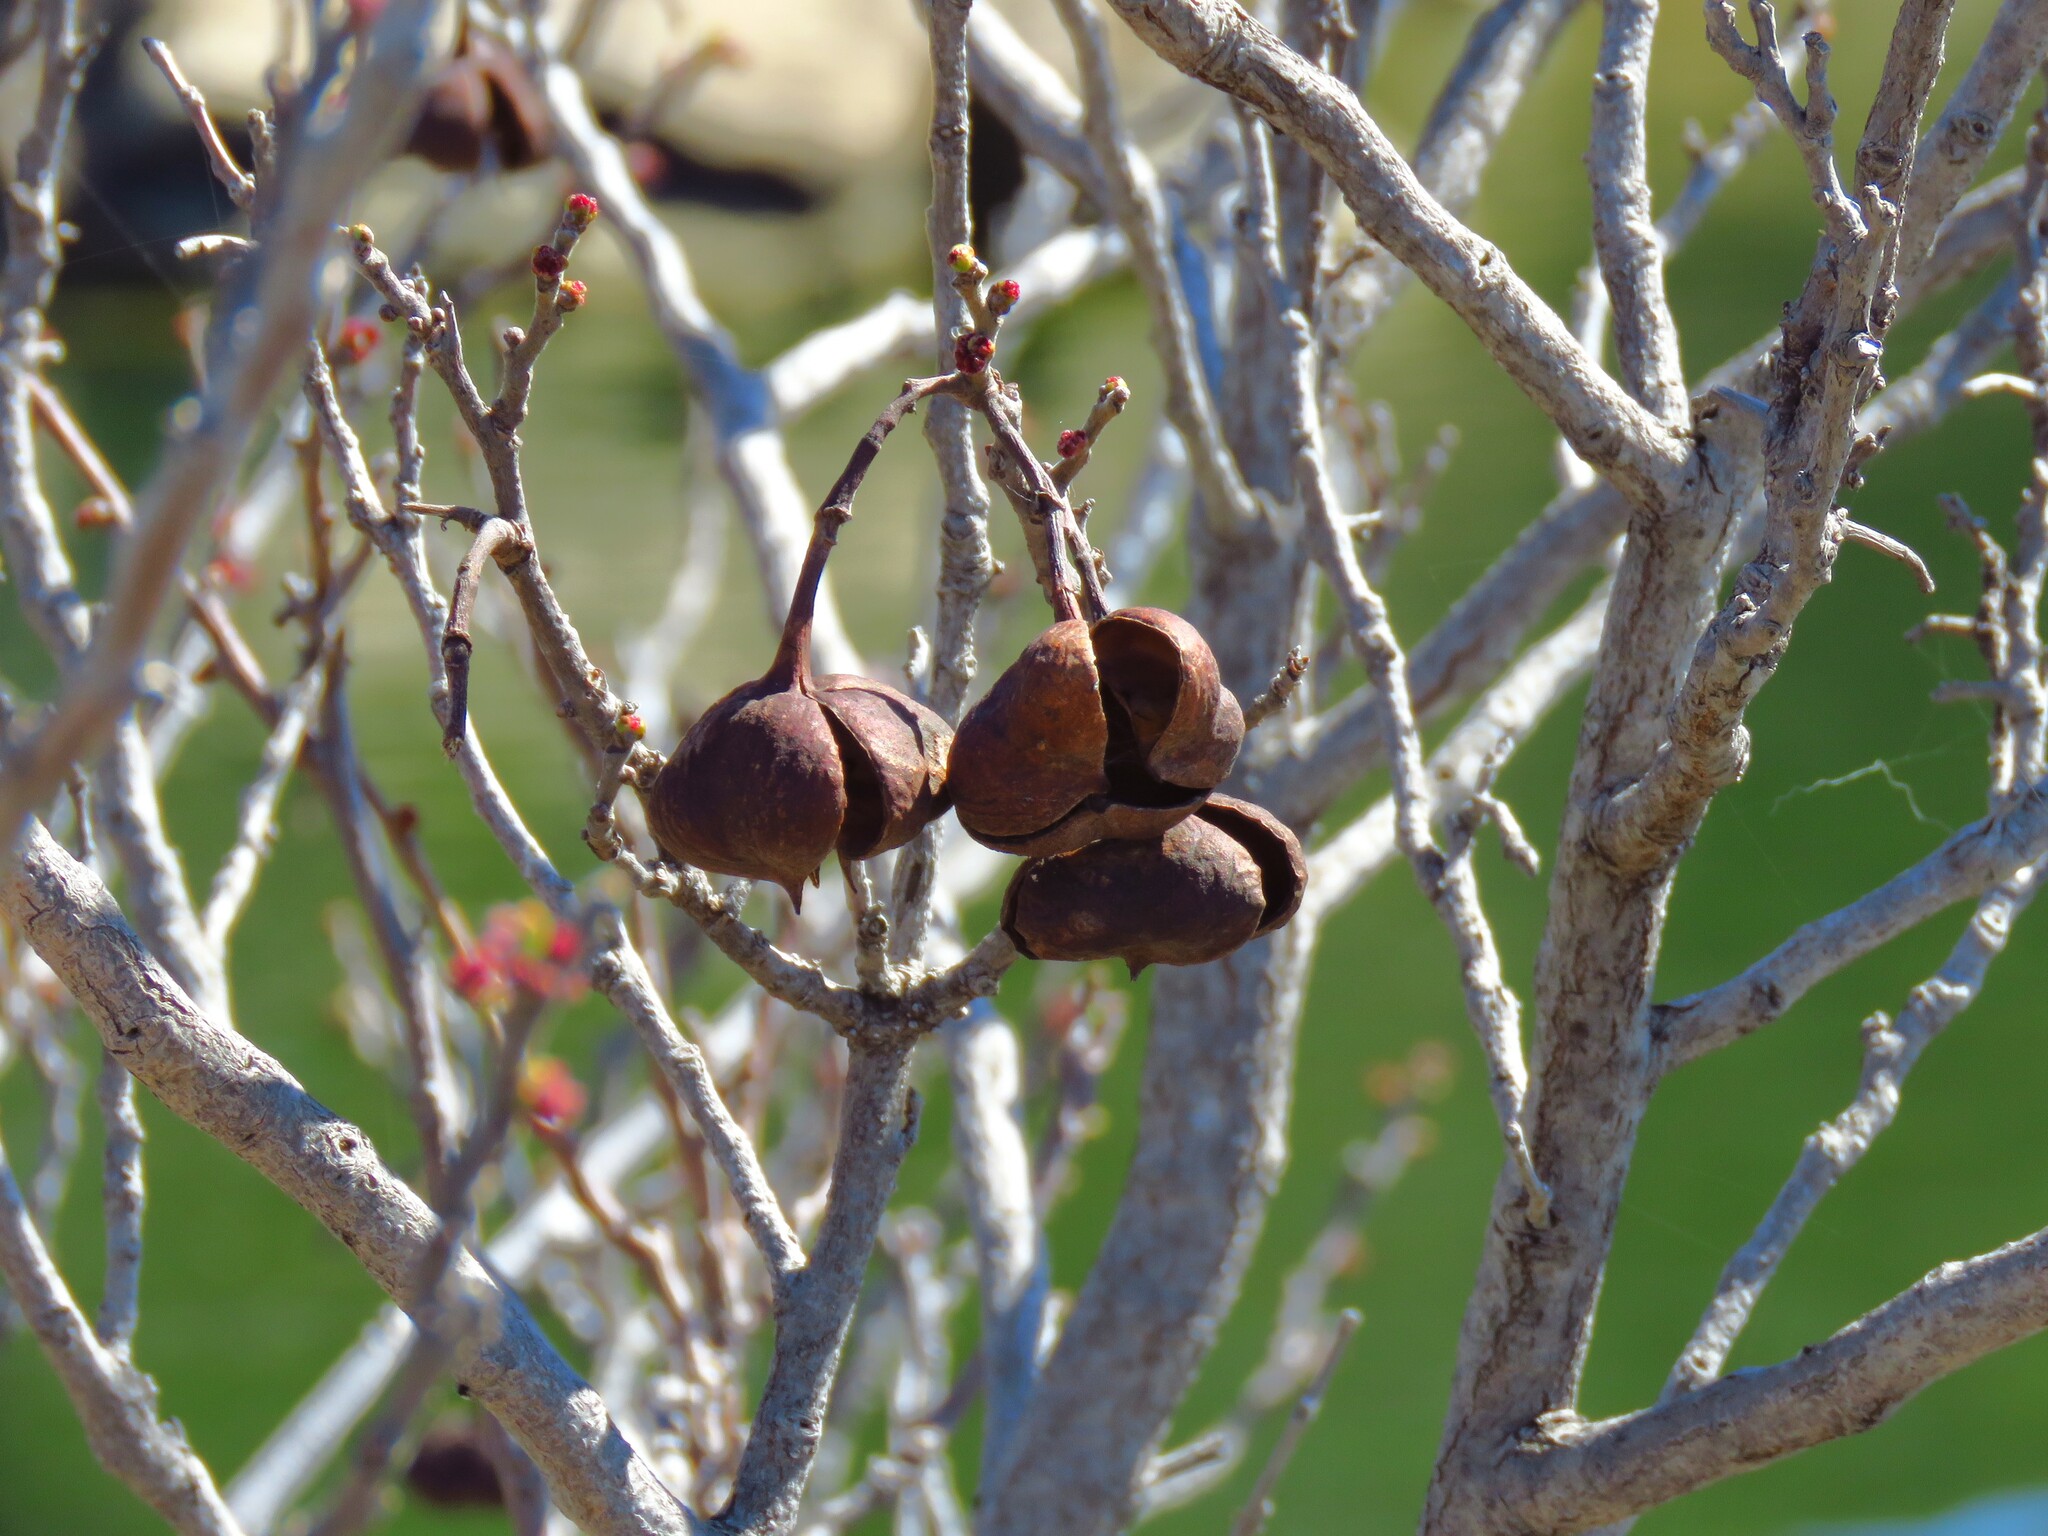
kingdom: Plantae
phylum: Tracheophyta
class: Magnoliopsida
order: Sapindales
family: Sapindaceae
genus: Ungnadia
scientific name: Ungnadia speciosa
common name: Texas-buckeye
